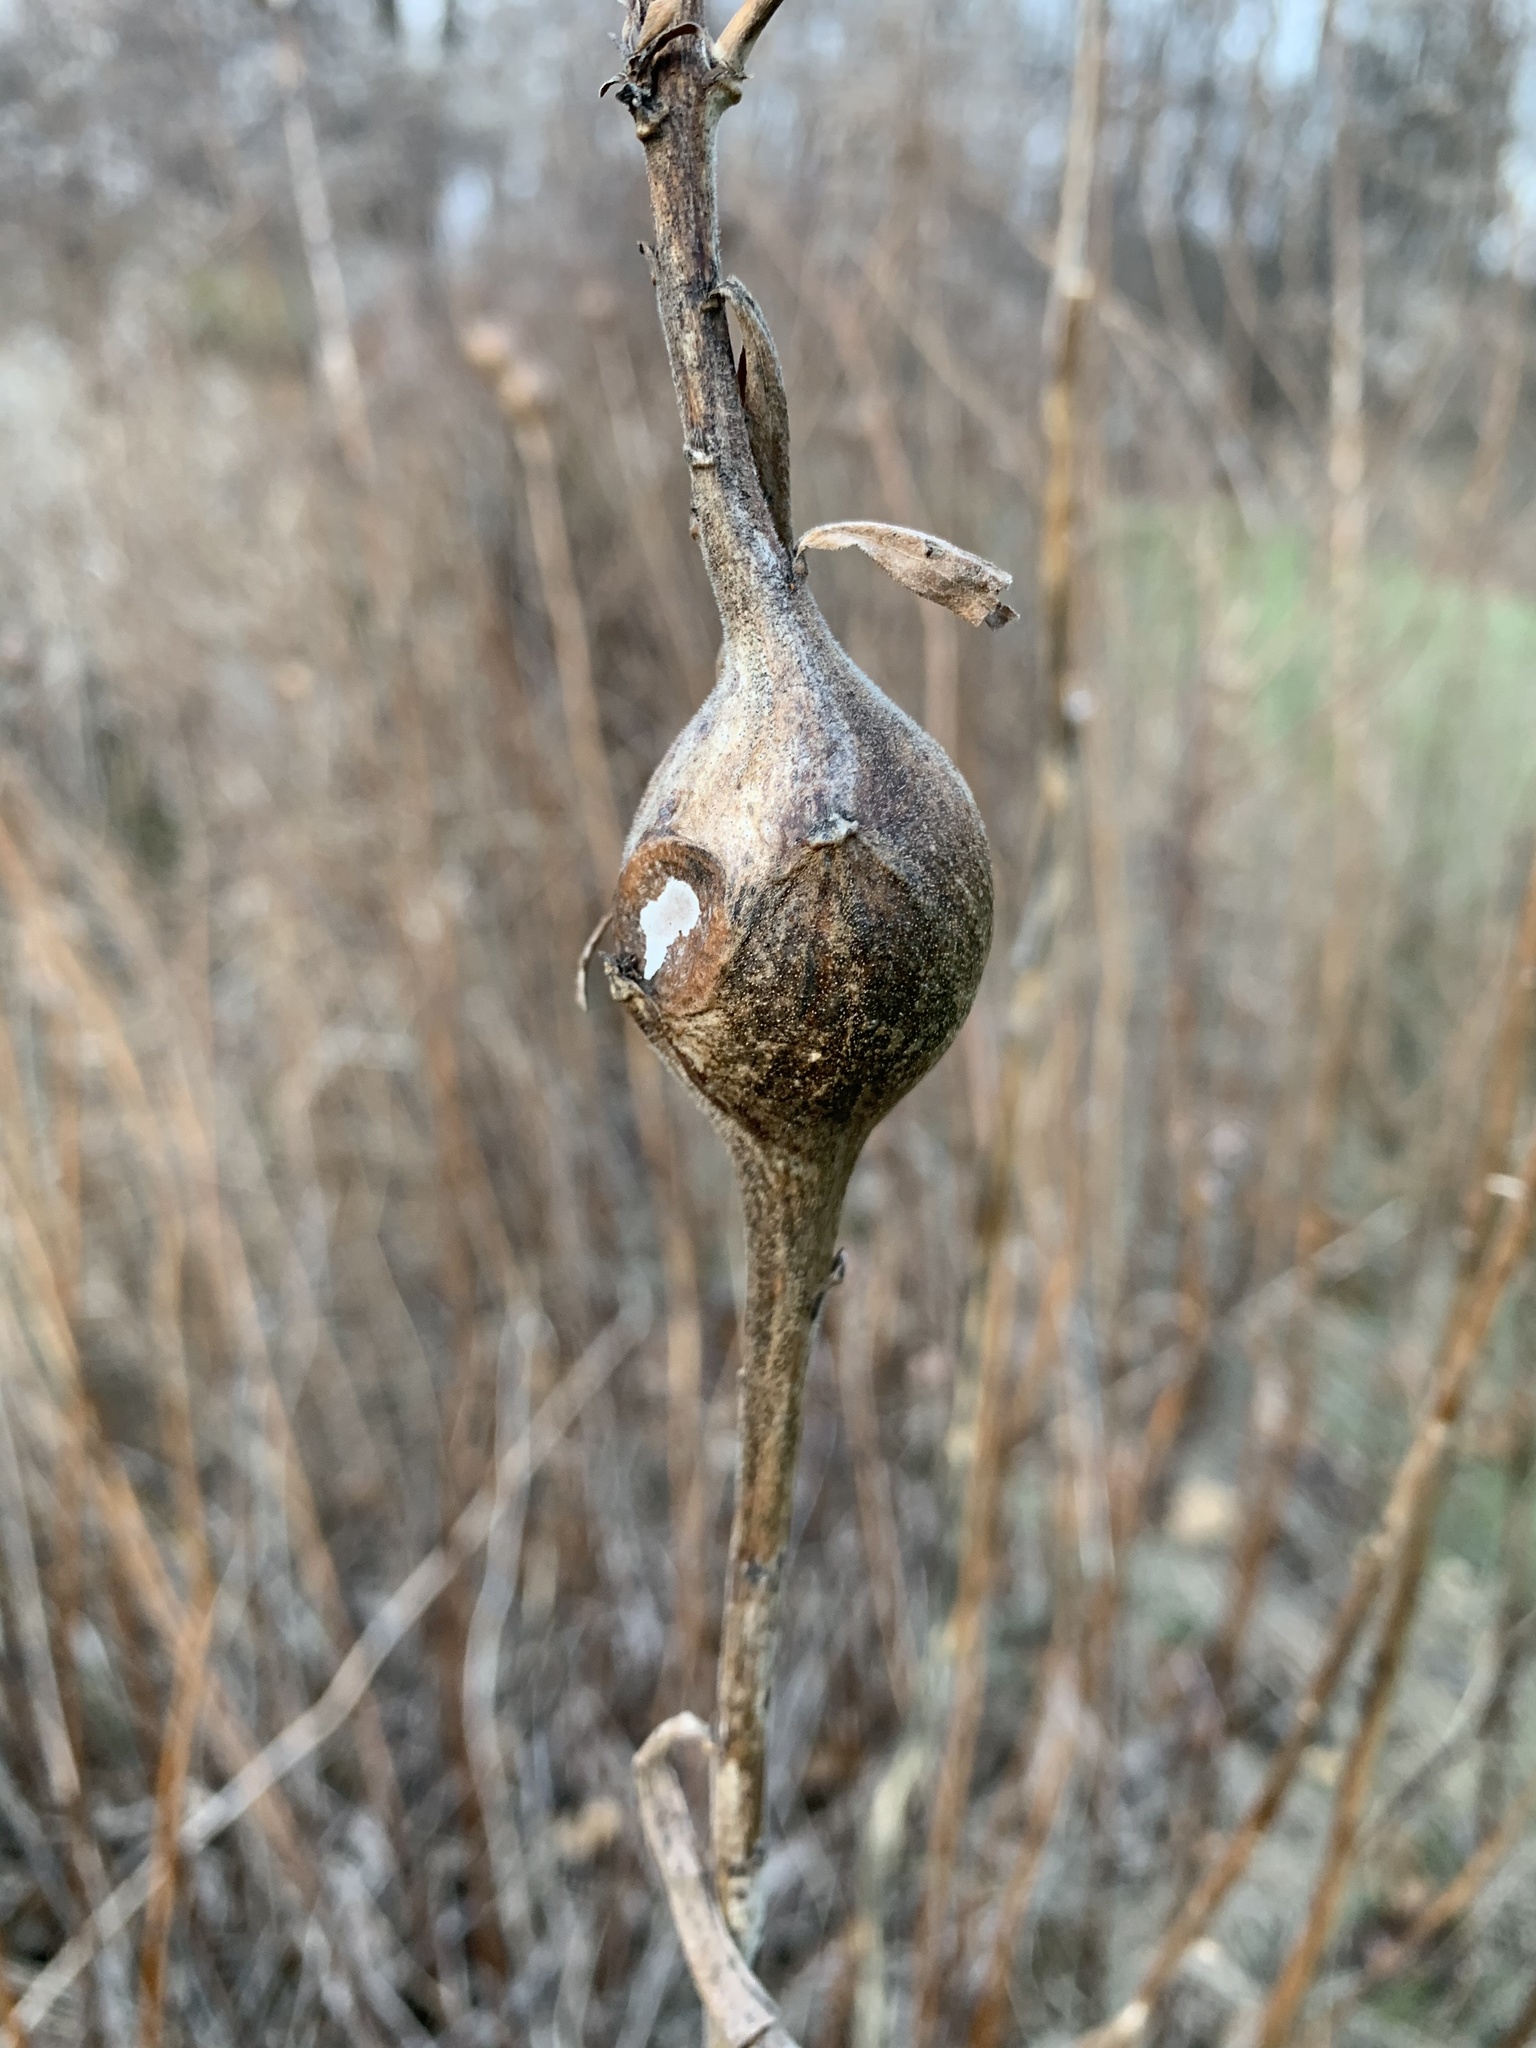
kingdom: Animalia
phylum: Arthropoda
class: Insecta
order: Diptera
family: Tephritidae
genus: Eurosta
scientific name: Eurosta solidaginis
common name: Goldenrod gall fly
